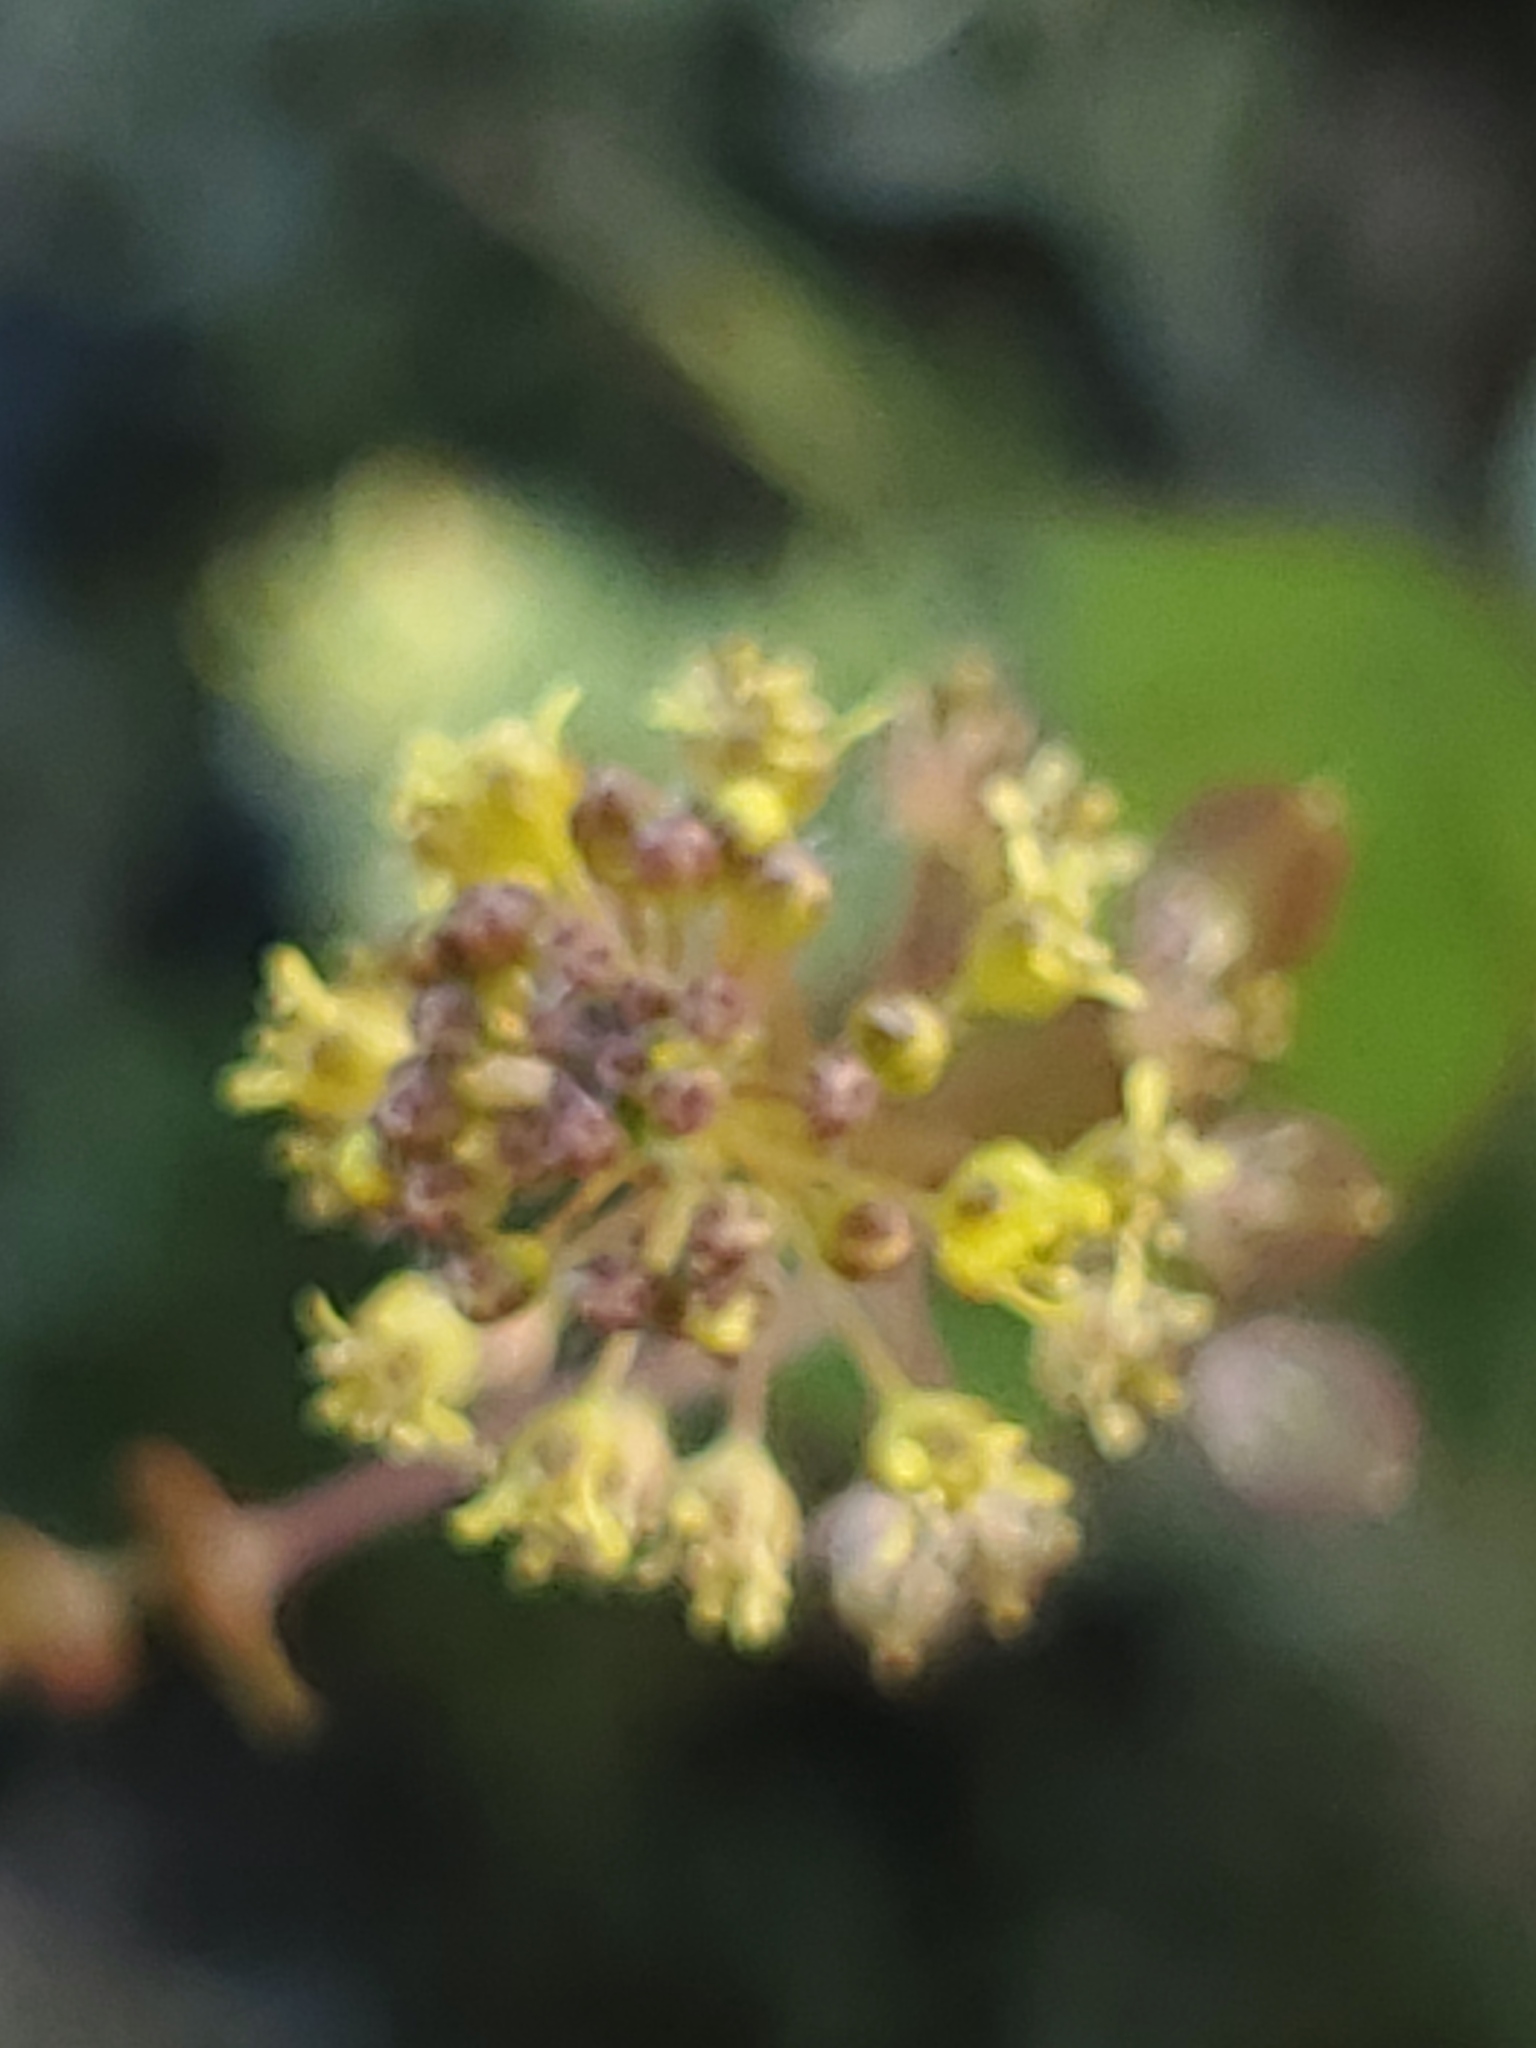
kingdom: Plantae
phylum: Tracheophyta
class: Magnoliopsida
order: Brassicales
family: Brassicaceae
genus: Lepidium
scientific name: Lepidium perfoliatum
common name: Perfoliate pepperwort
